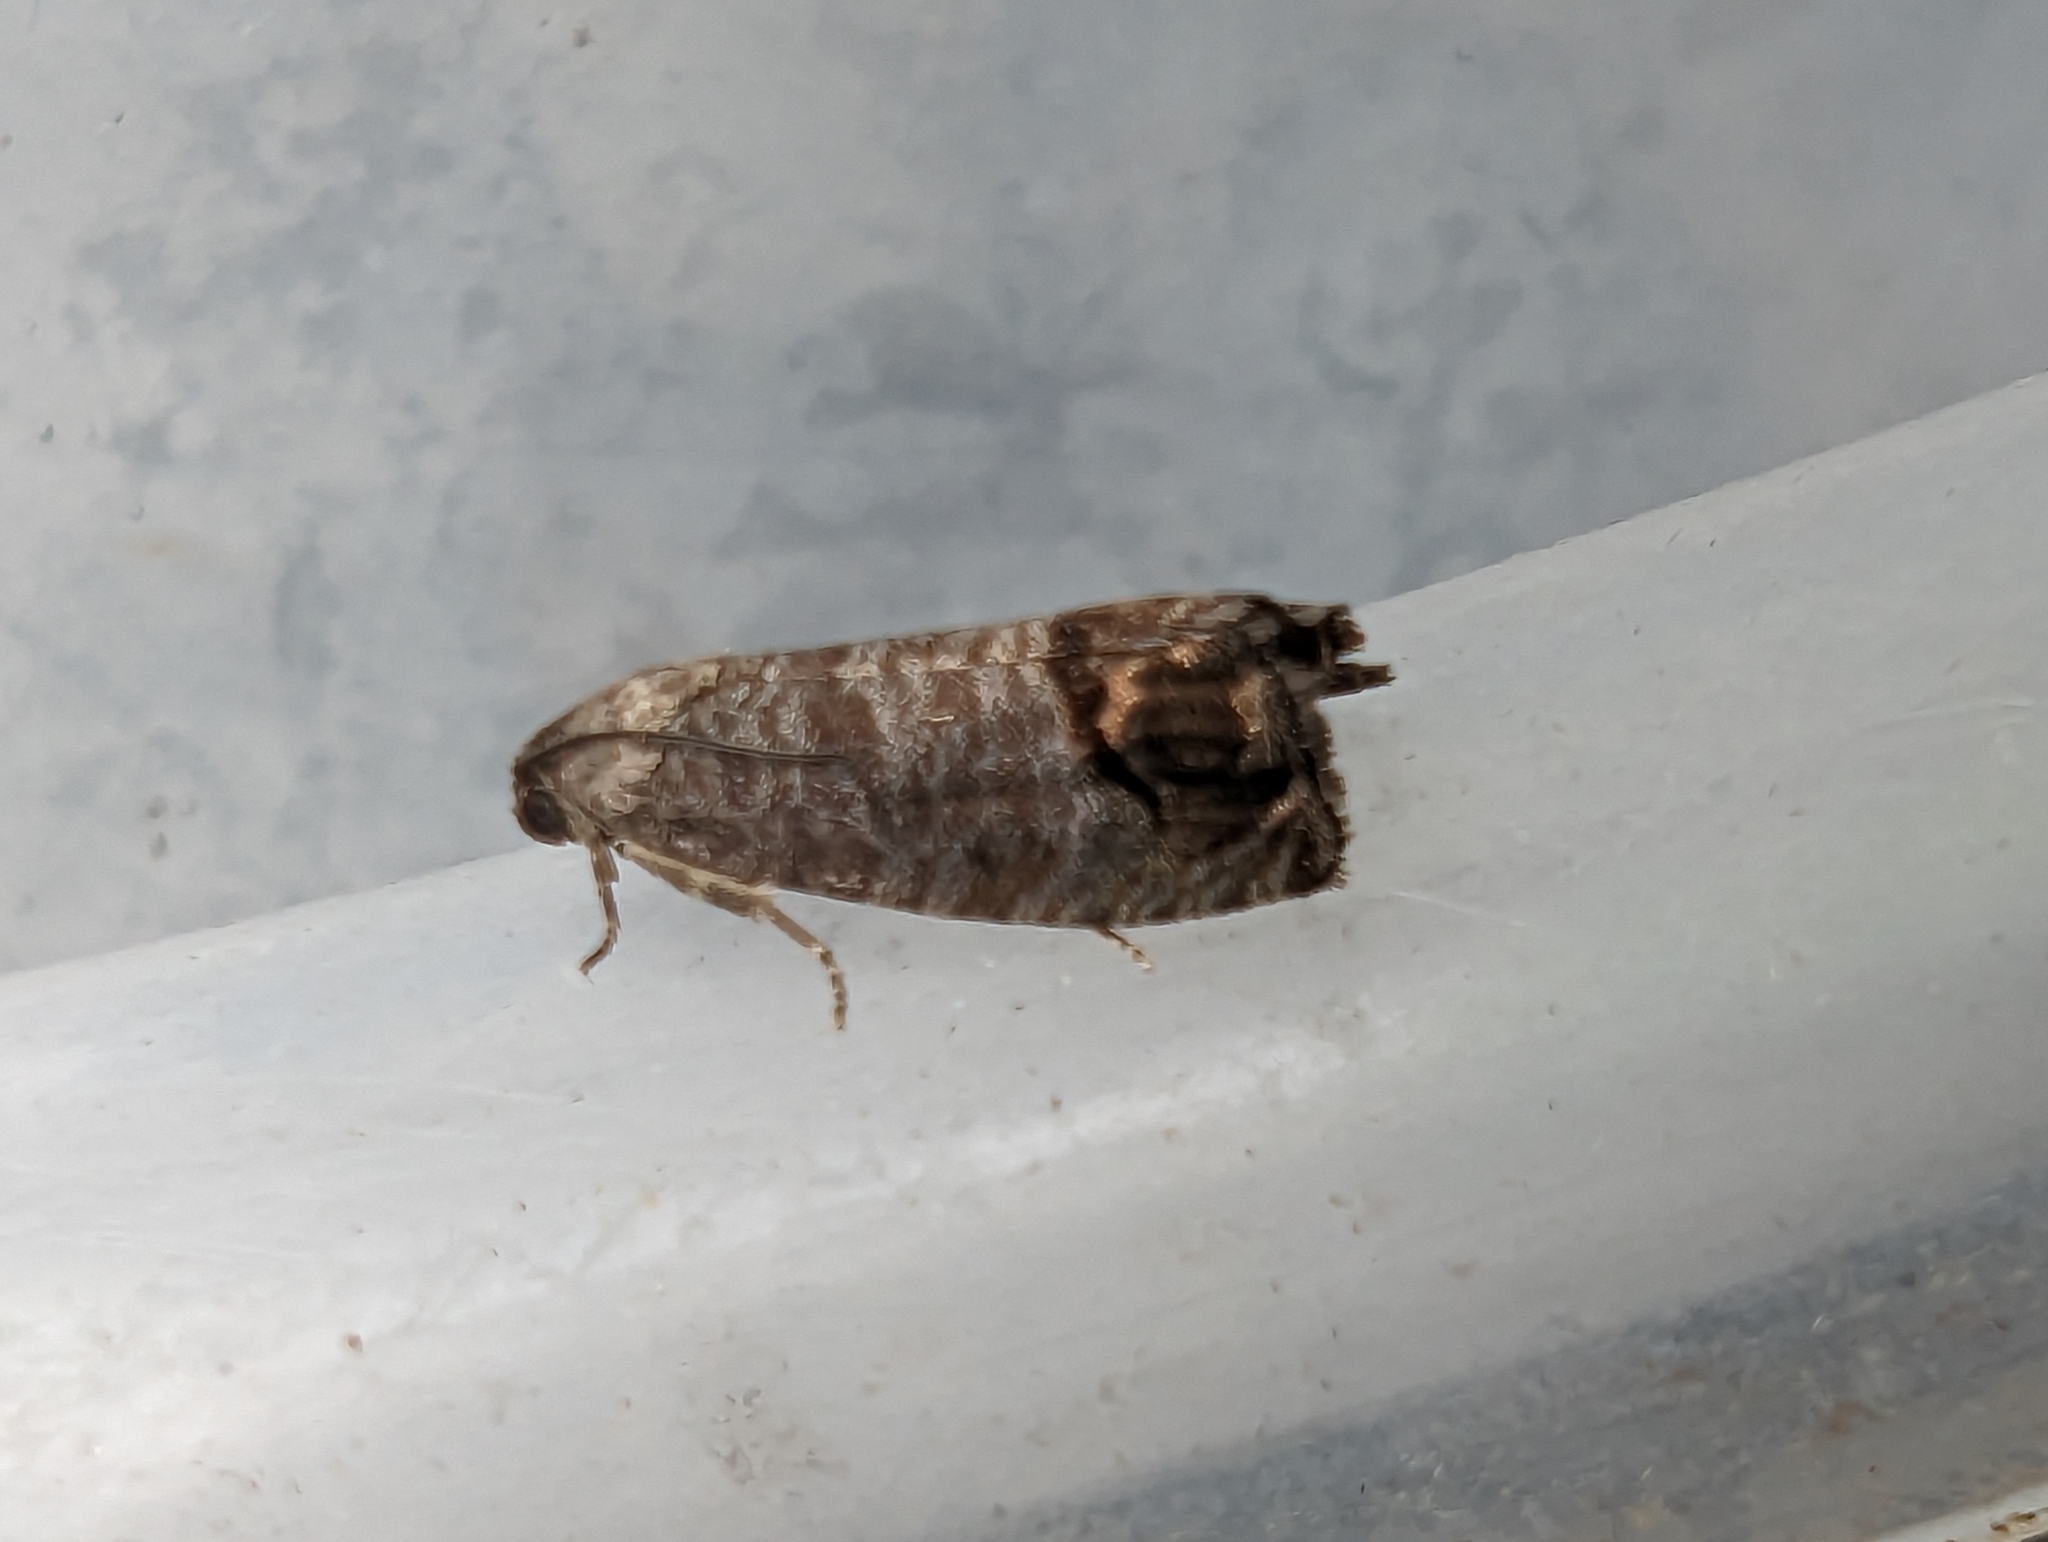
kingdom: Animalia
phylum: Arthropoda
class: Insecta
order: Lepidoptera
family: Tortricidae
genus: Cydia
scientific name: Cydia pomonella
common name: Codling moth
